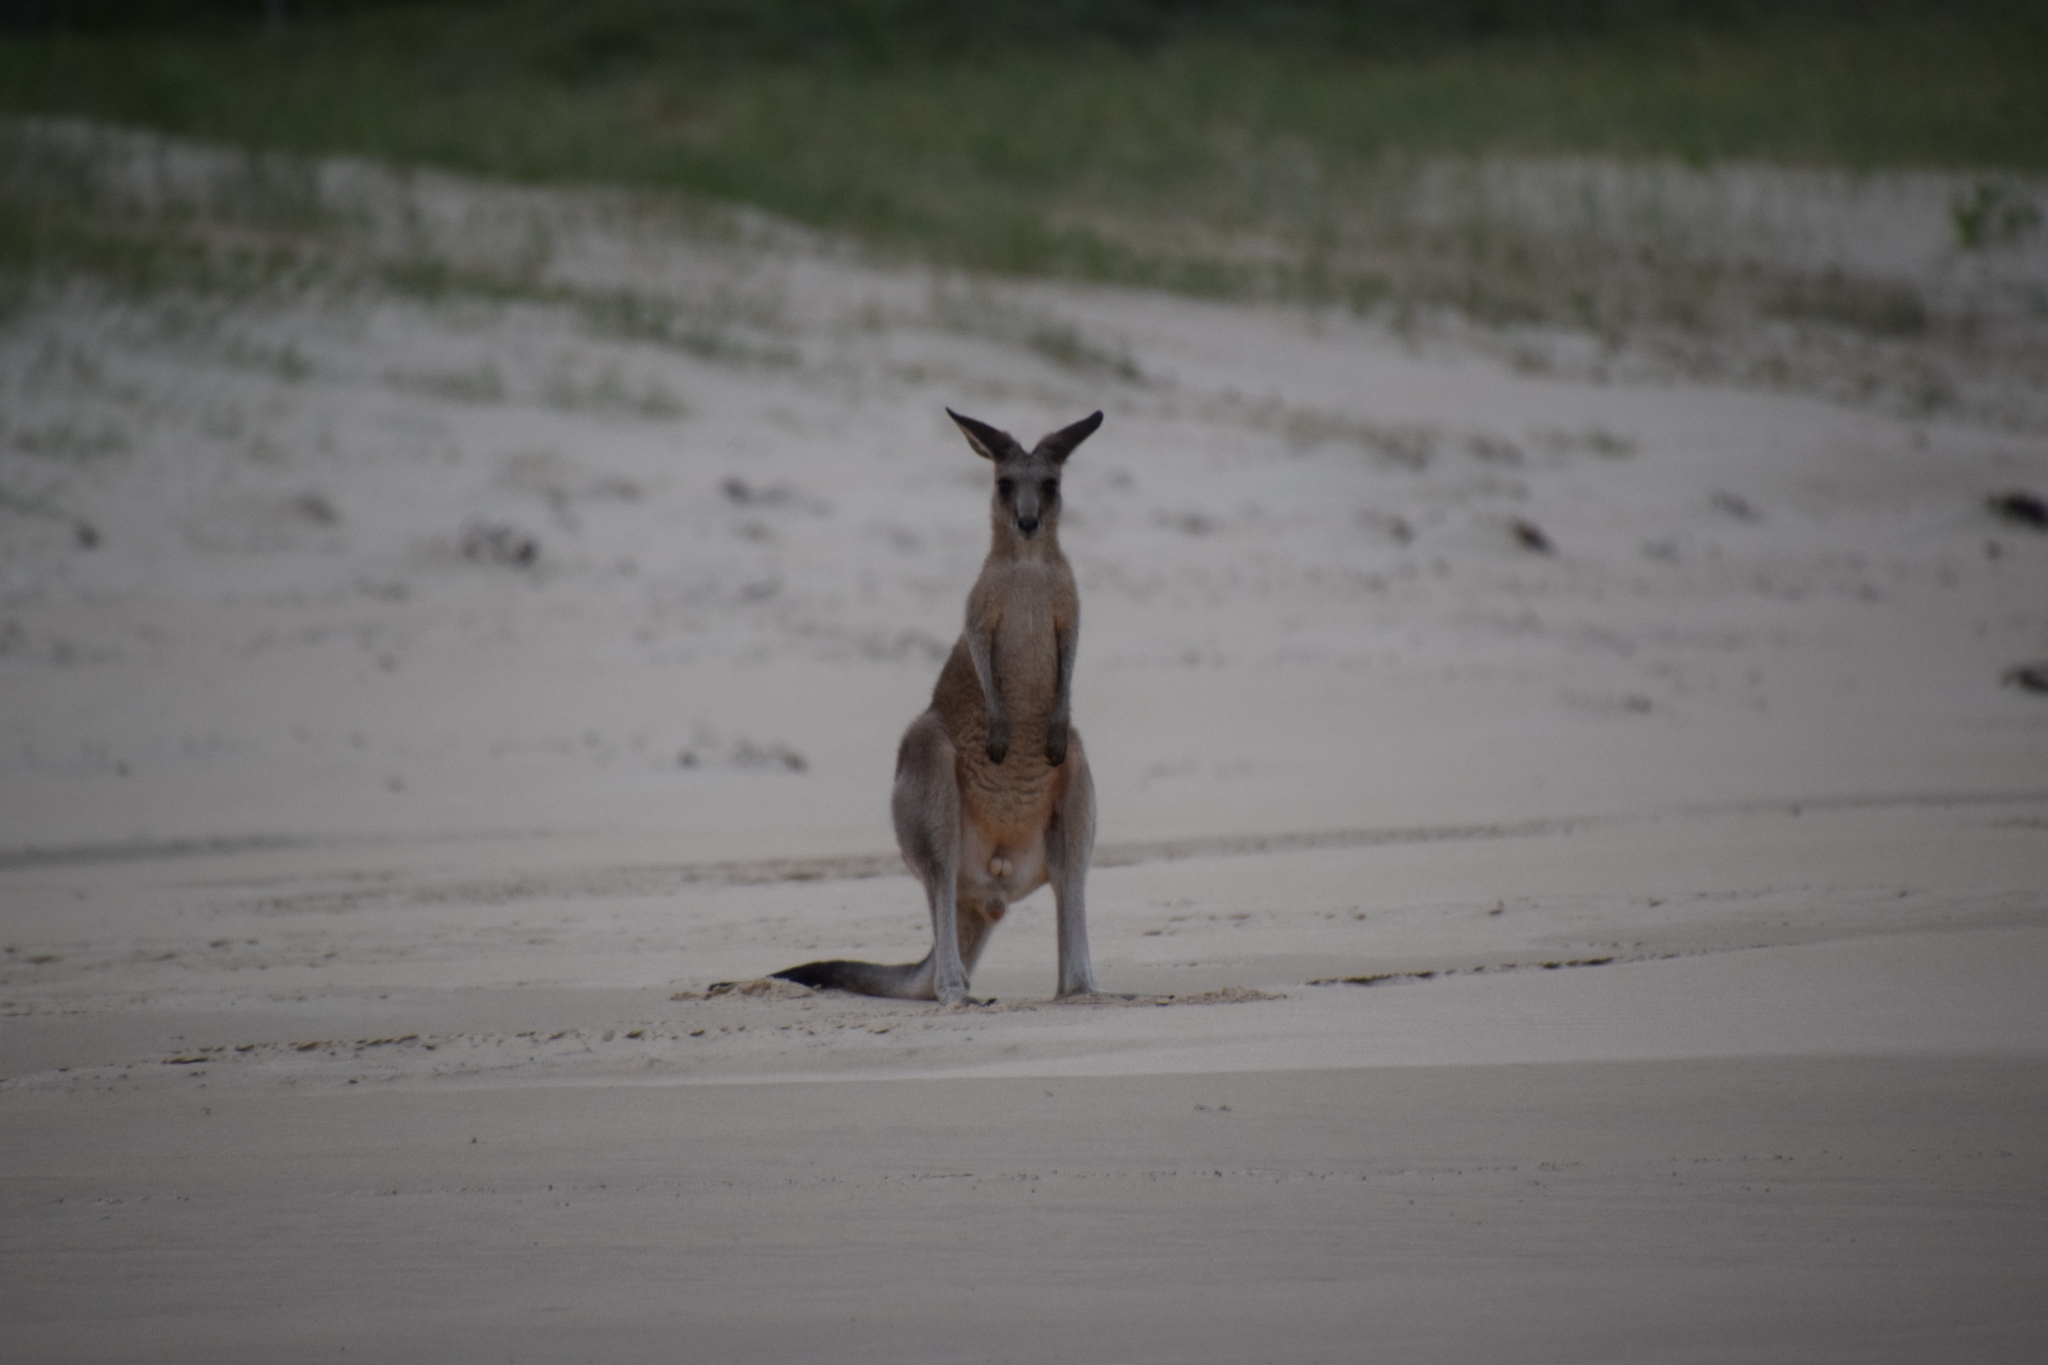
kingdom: Animalia
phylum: Chordata
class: Mammalia
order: Diprotodontia
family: Macropodidae
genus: Macropus
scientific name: Macropus giganteus
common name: Eastern grey kangaroo
